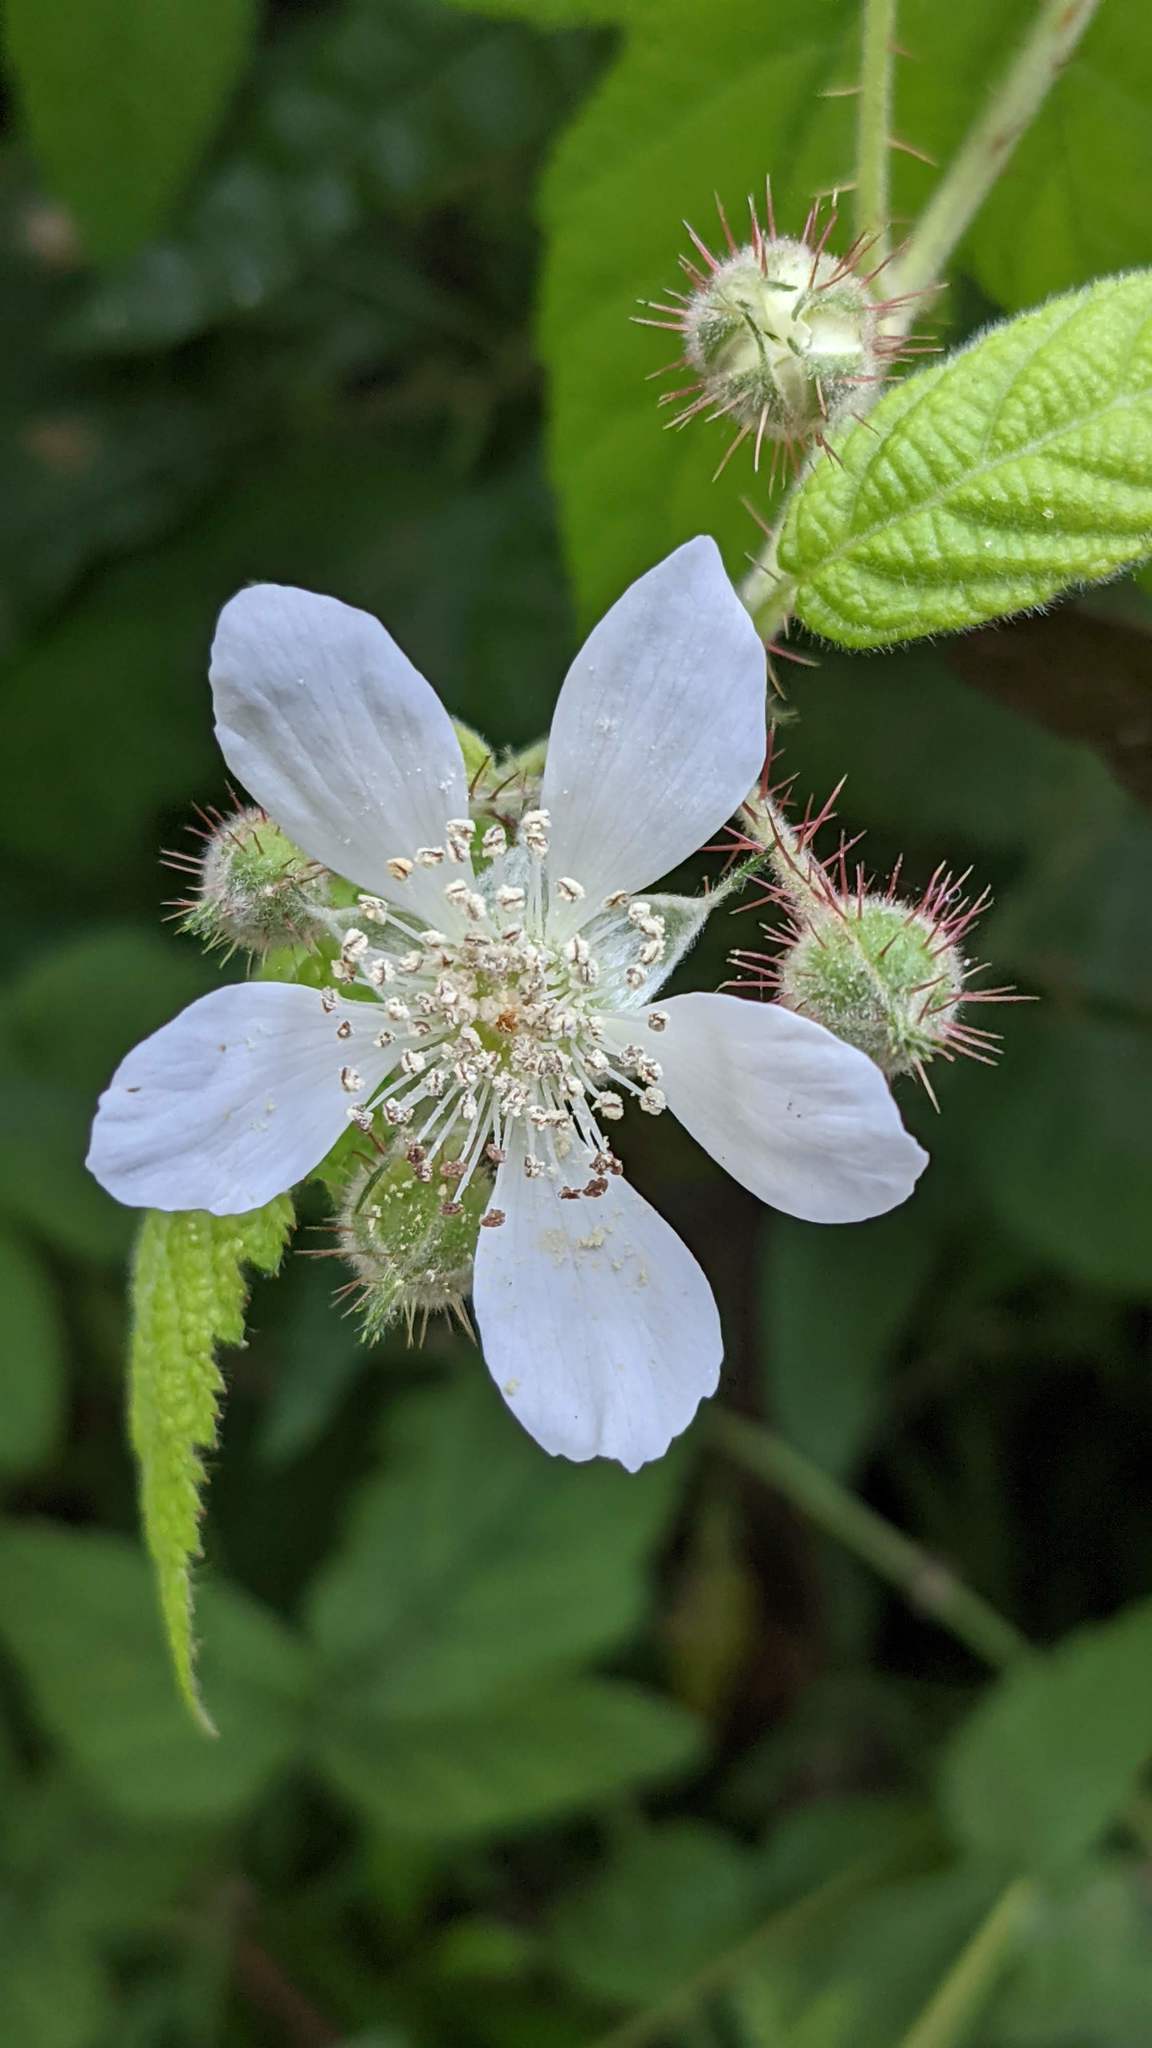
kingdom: Plantae
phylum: Tracheophyta
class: Magnoliopsida
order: Rosales
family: Rosaceae
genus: Rubus
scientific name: Rubus ursinus
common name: Pacific blackberry
